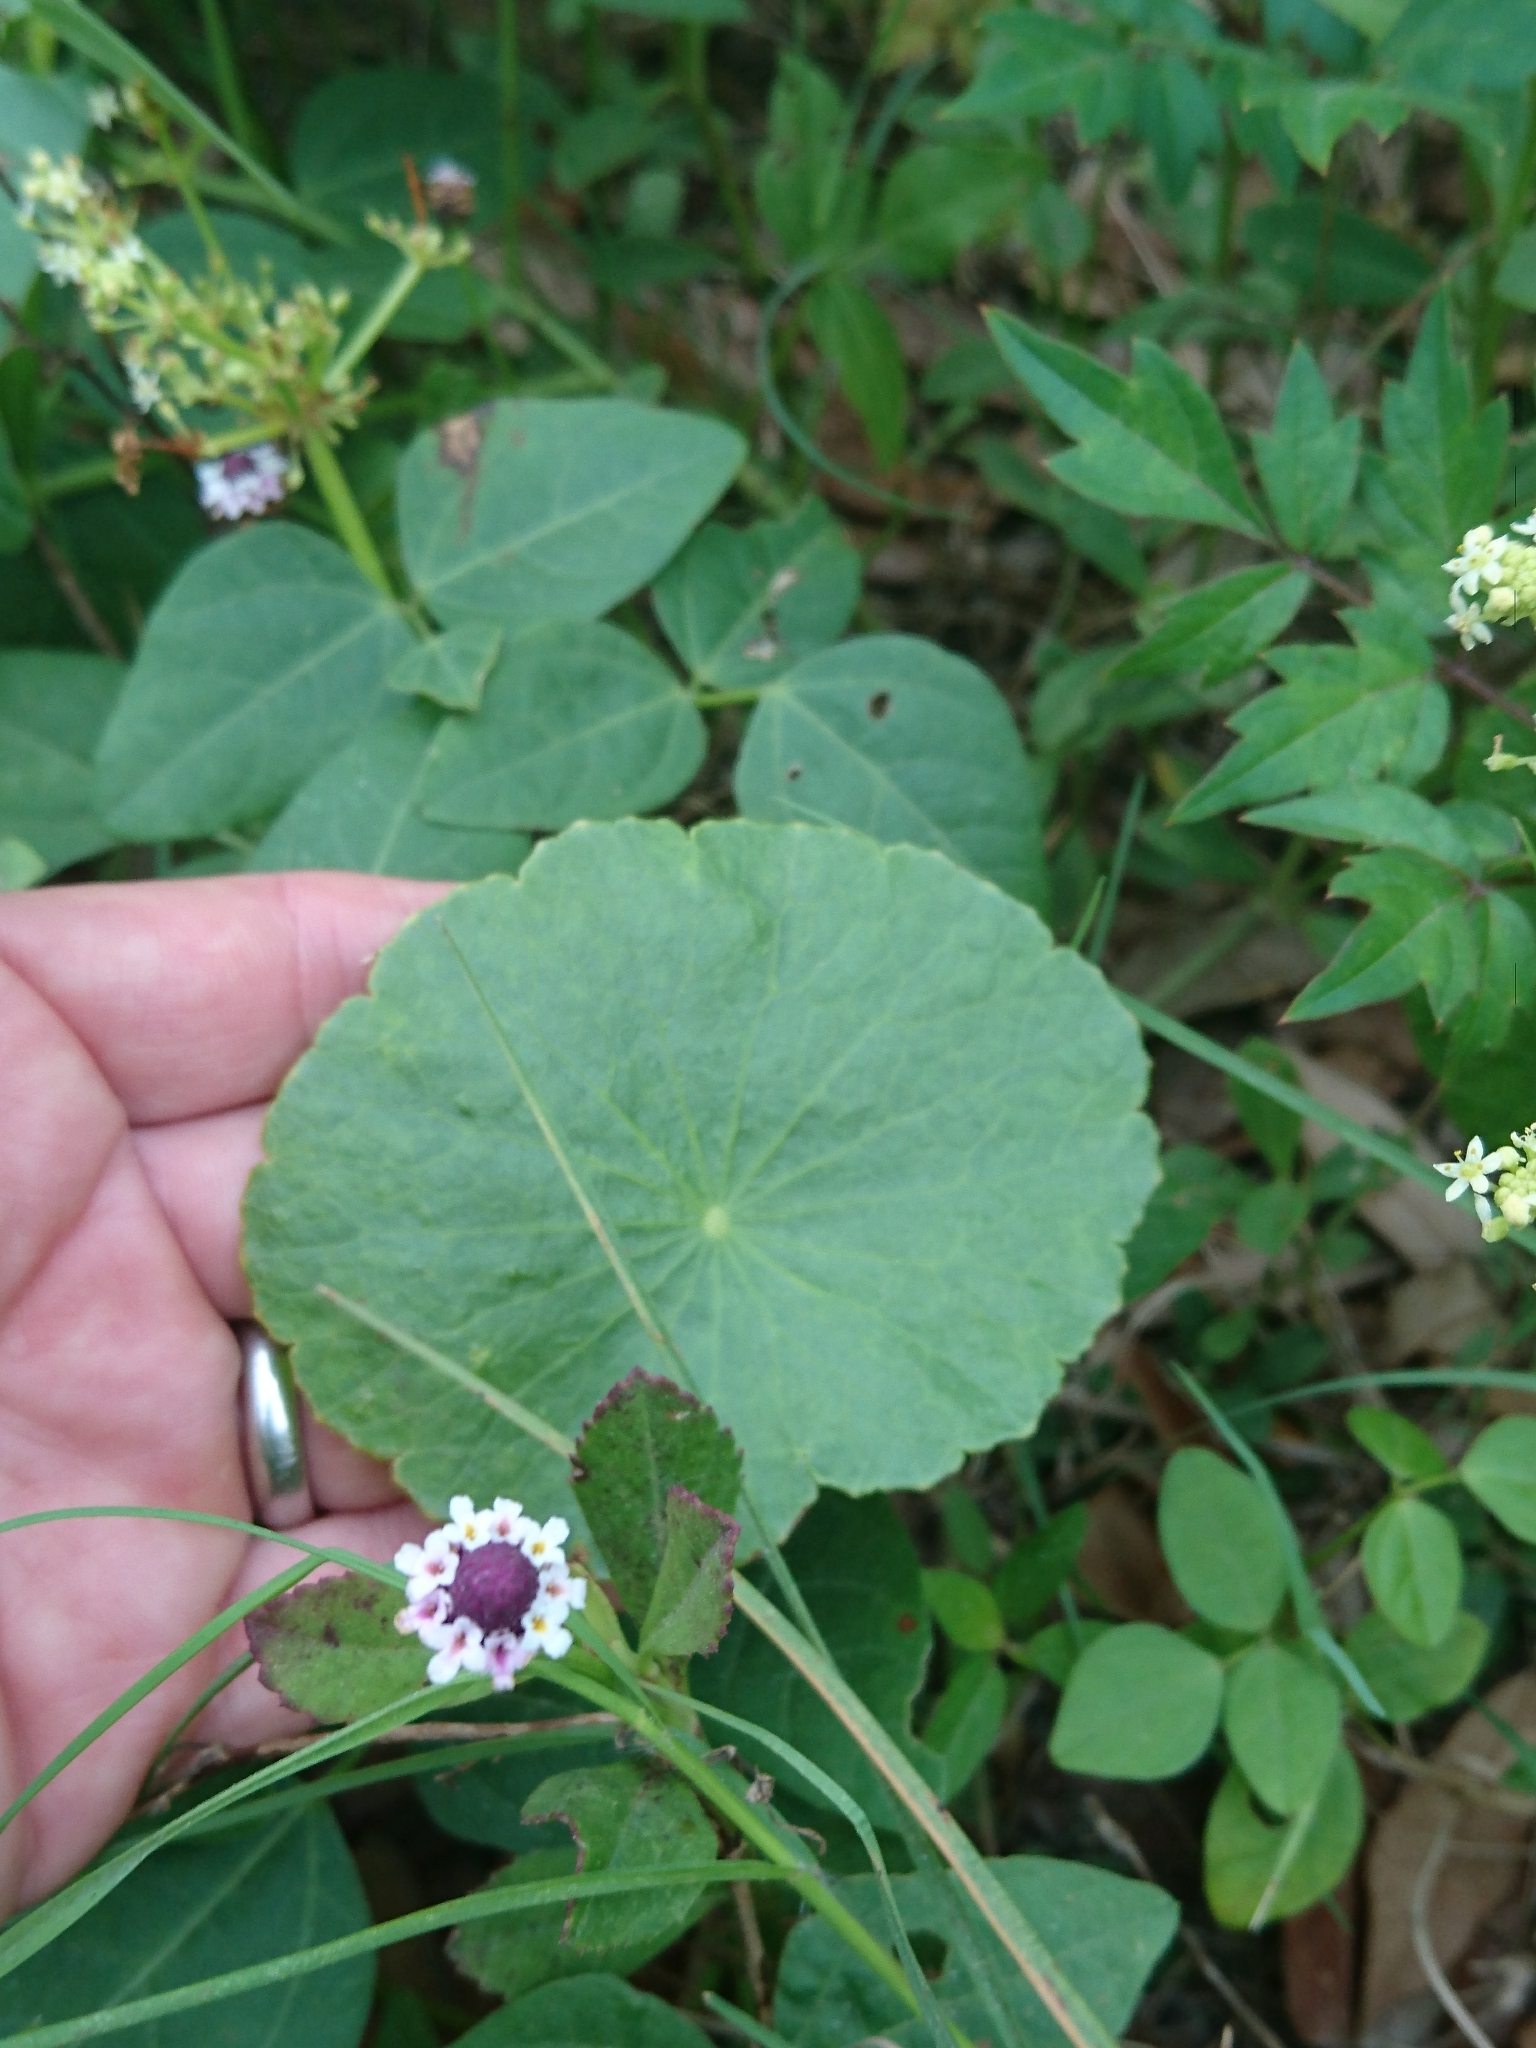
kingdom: Plantae
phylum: Tracheophyta
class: Magnoliopsida
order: Apiales
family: Araliaceae
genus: Hydrocotyle
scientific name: Hydrocotyle bonariensis
